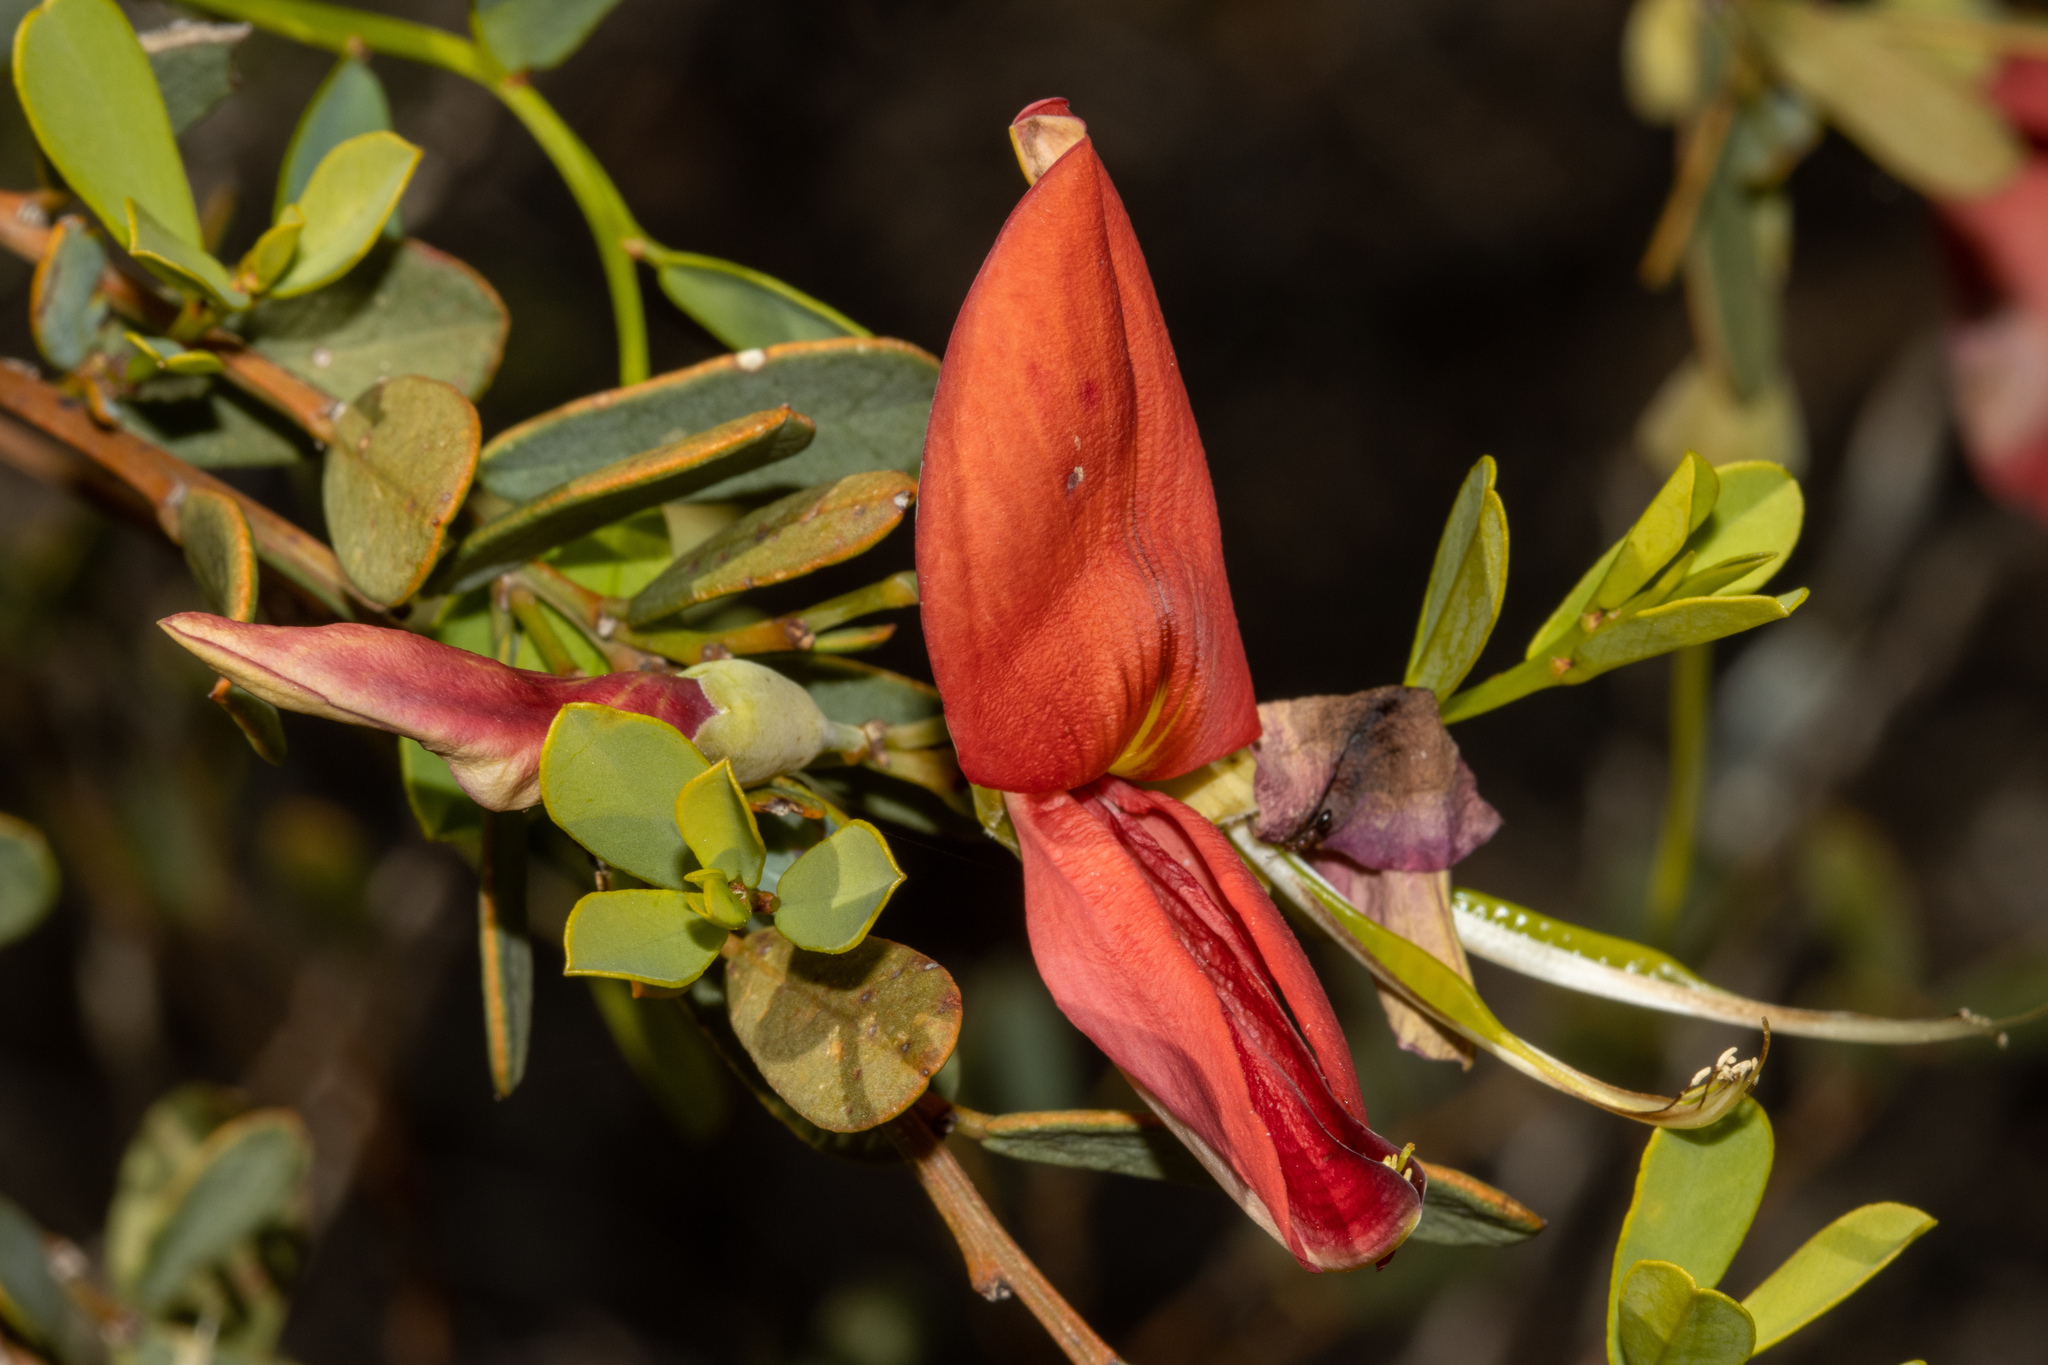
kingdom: Plantae
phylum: Tracheophyta
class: Magnoliopsida
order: Fabales
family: Fabaceae
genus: Templetonia
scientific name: Templetonia retusa
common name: Cockies'-tongue
